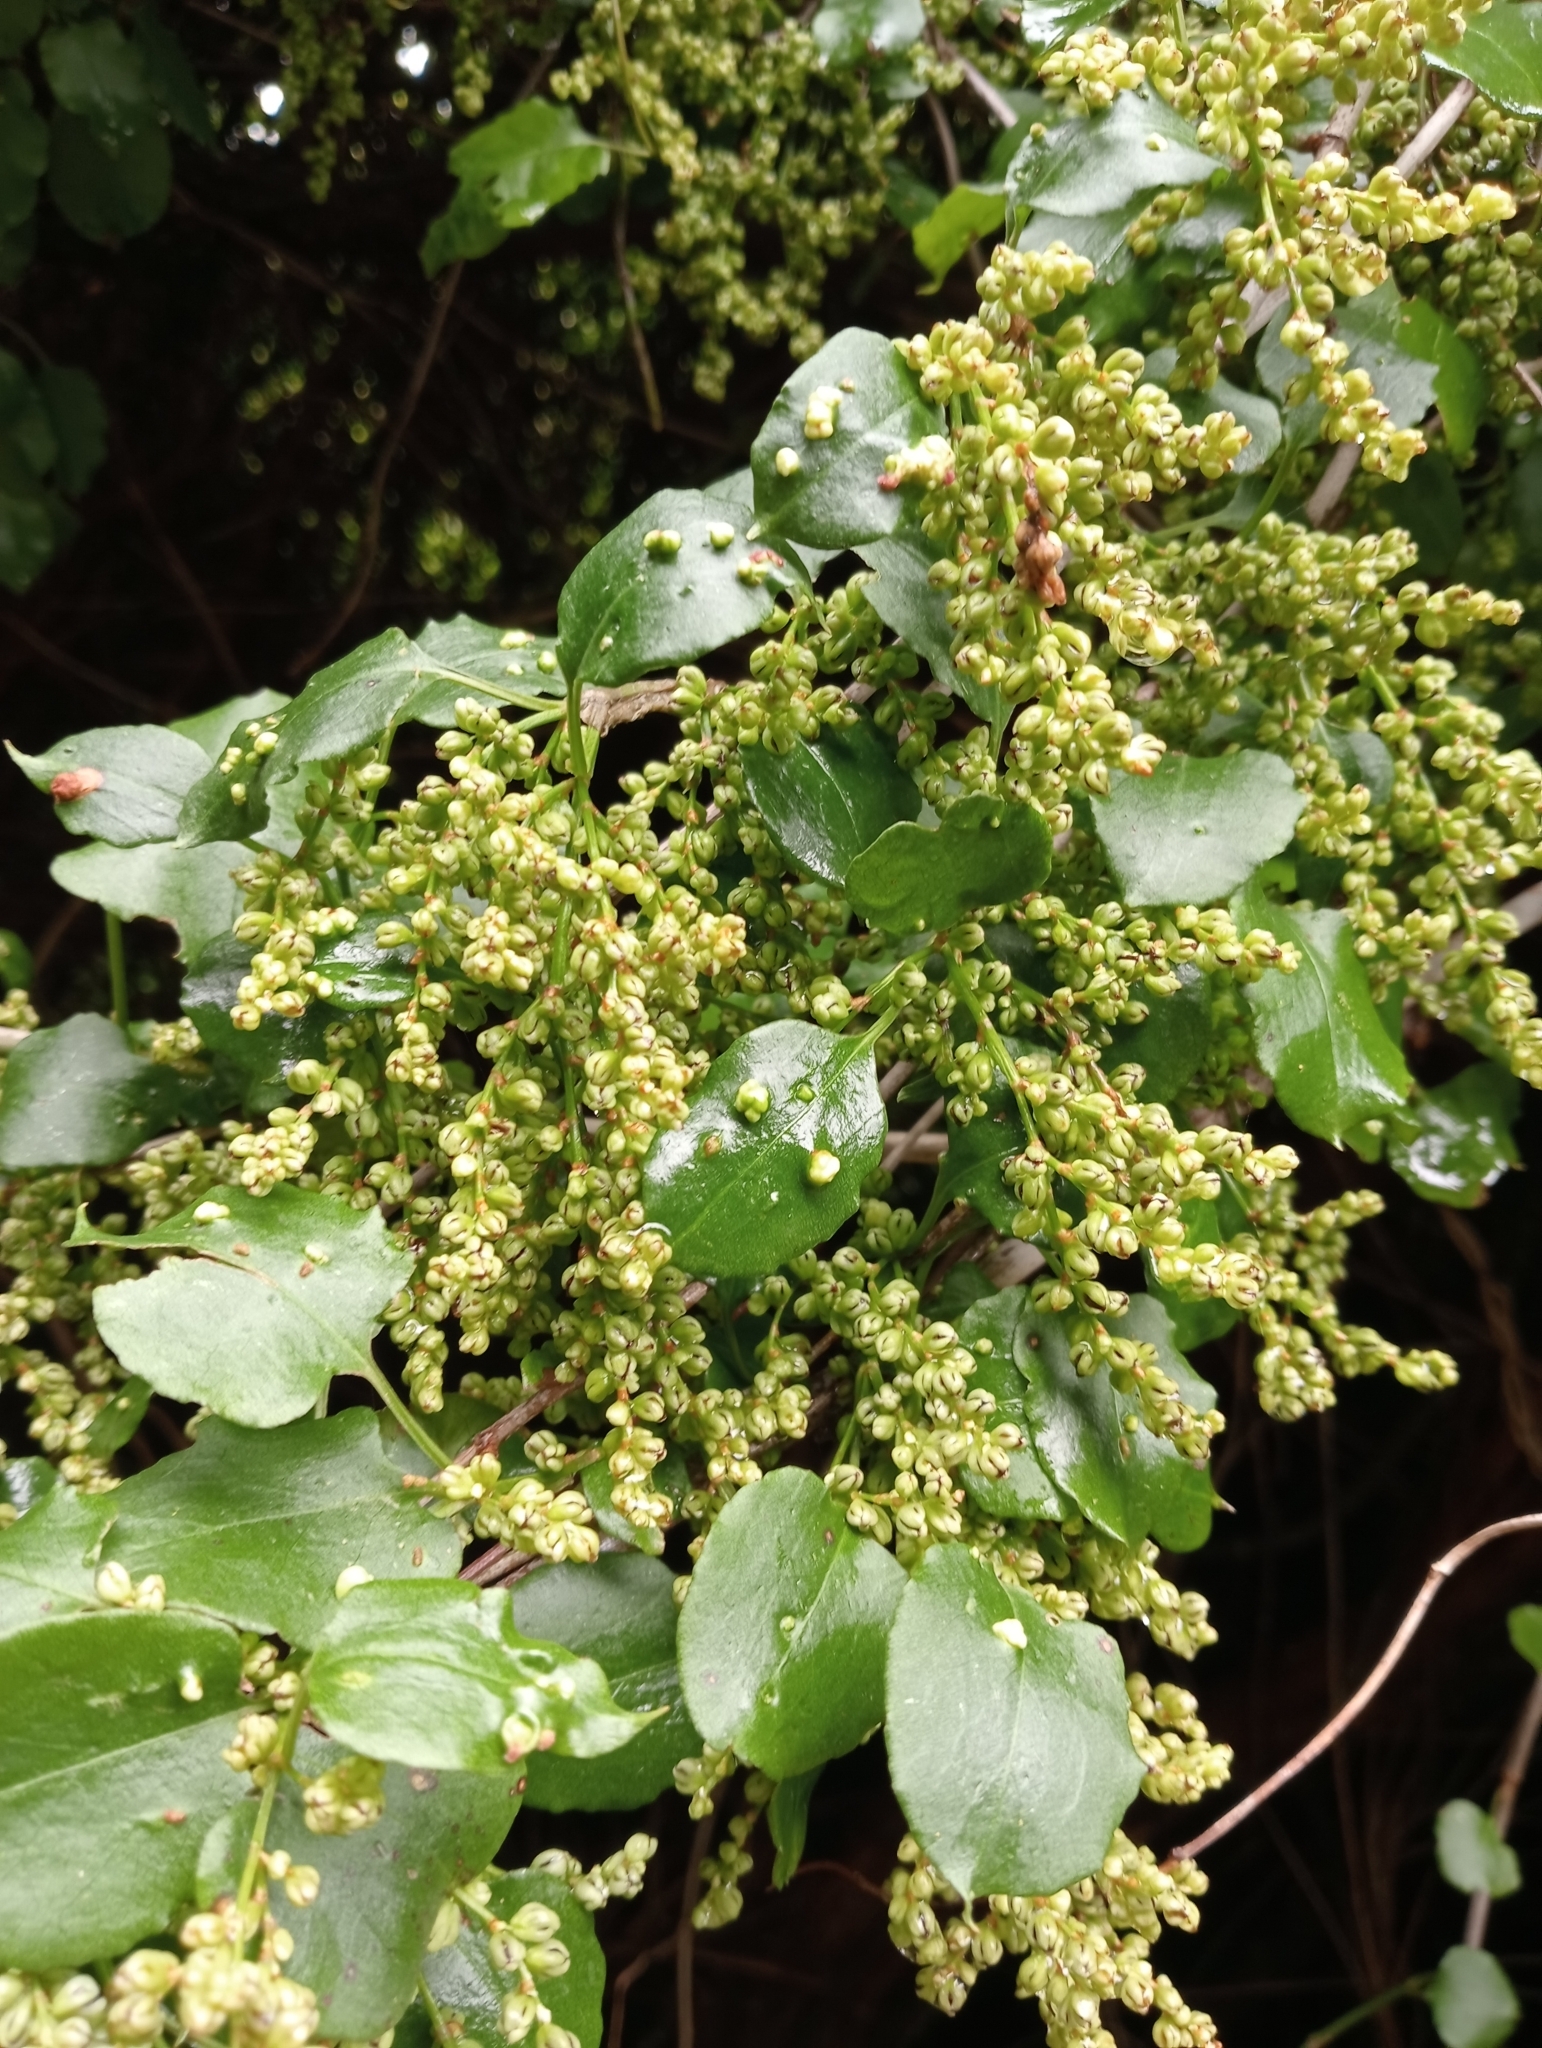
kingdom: Plantae
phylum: Tracheophyta
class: Magnoliopsida
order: Caryophyllales
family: Polygonaceae
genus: Muehlenbeckia
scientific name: Muehlenbeckia australis
